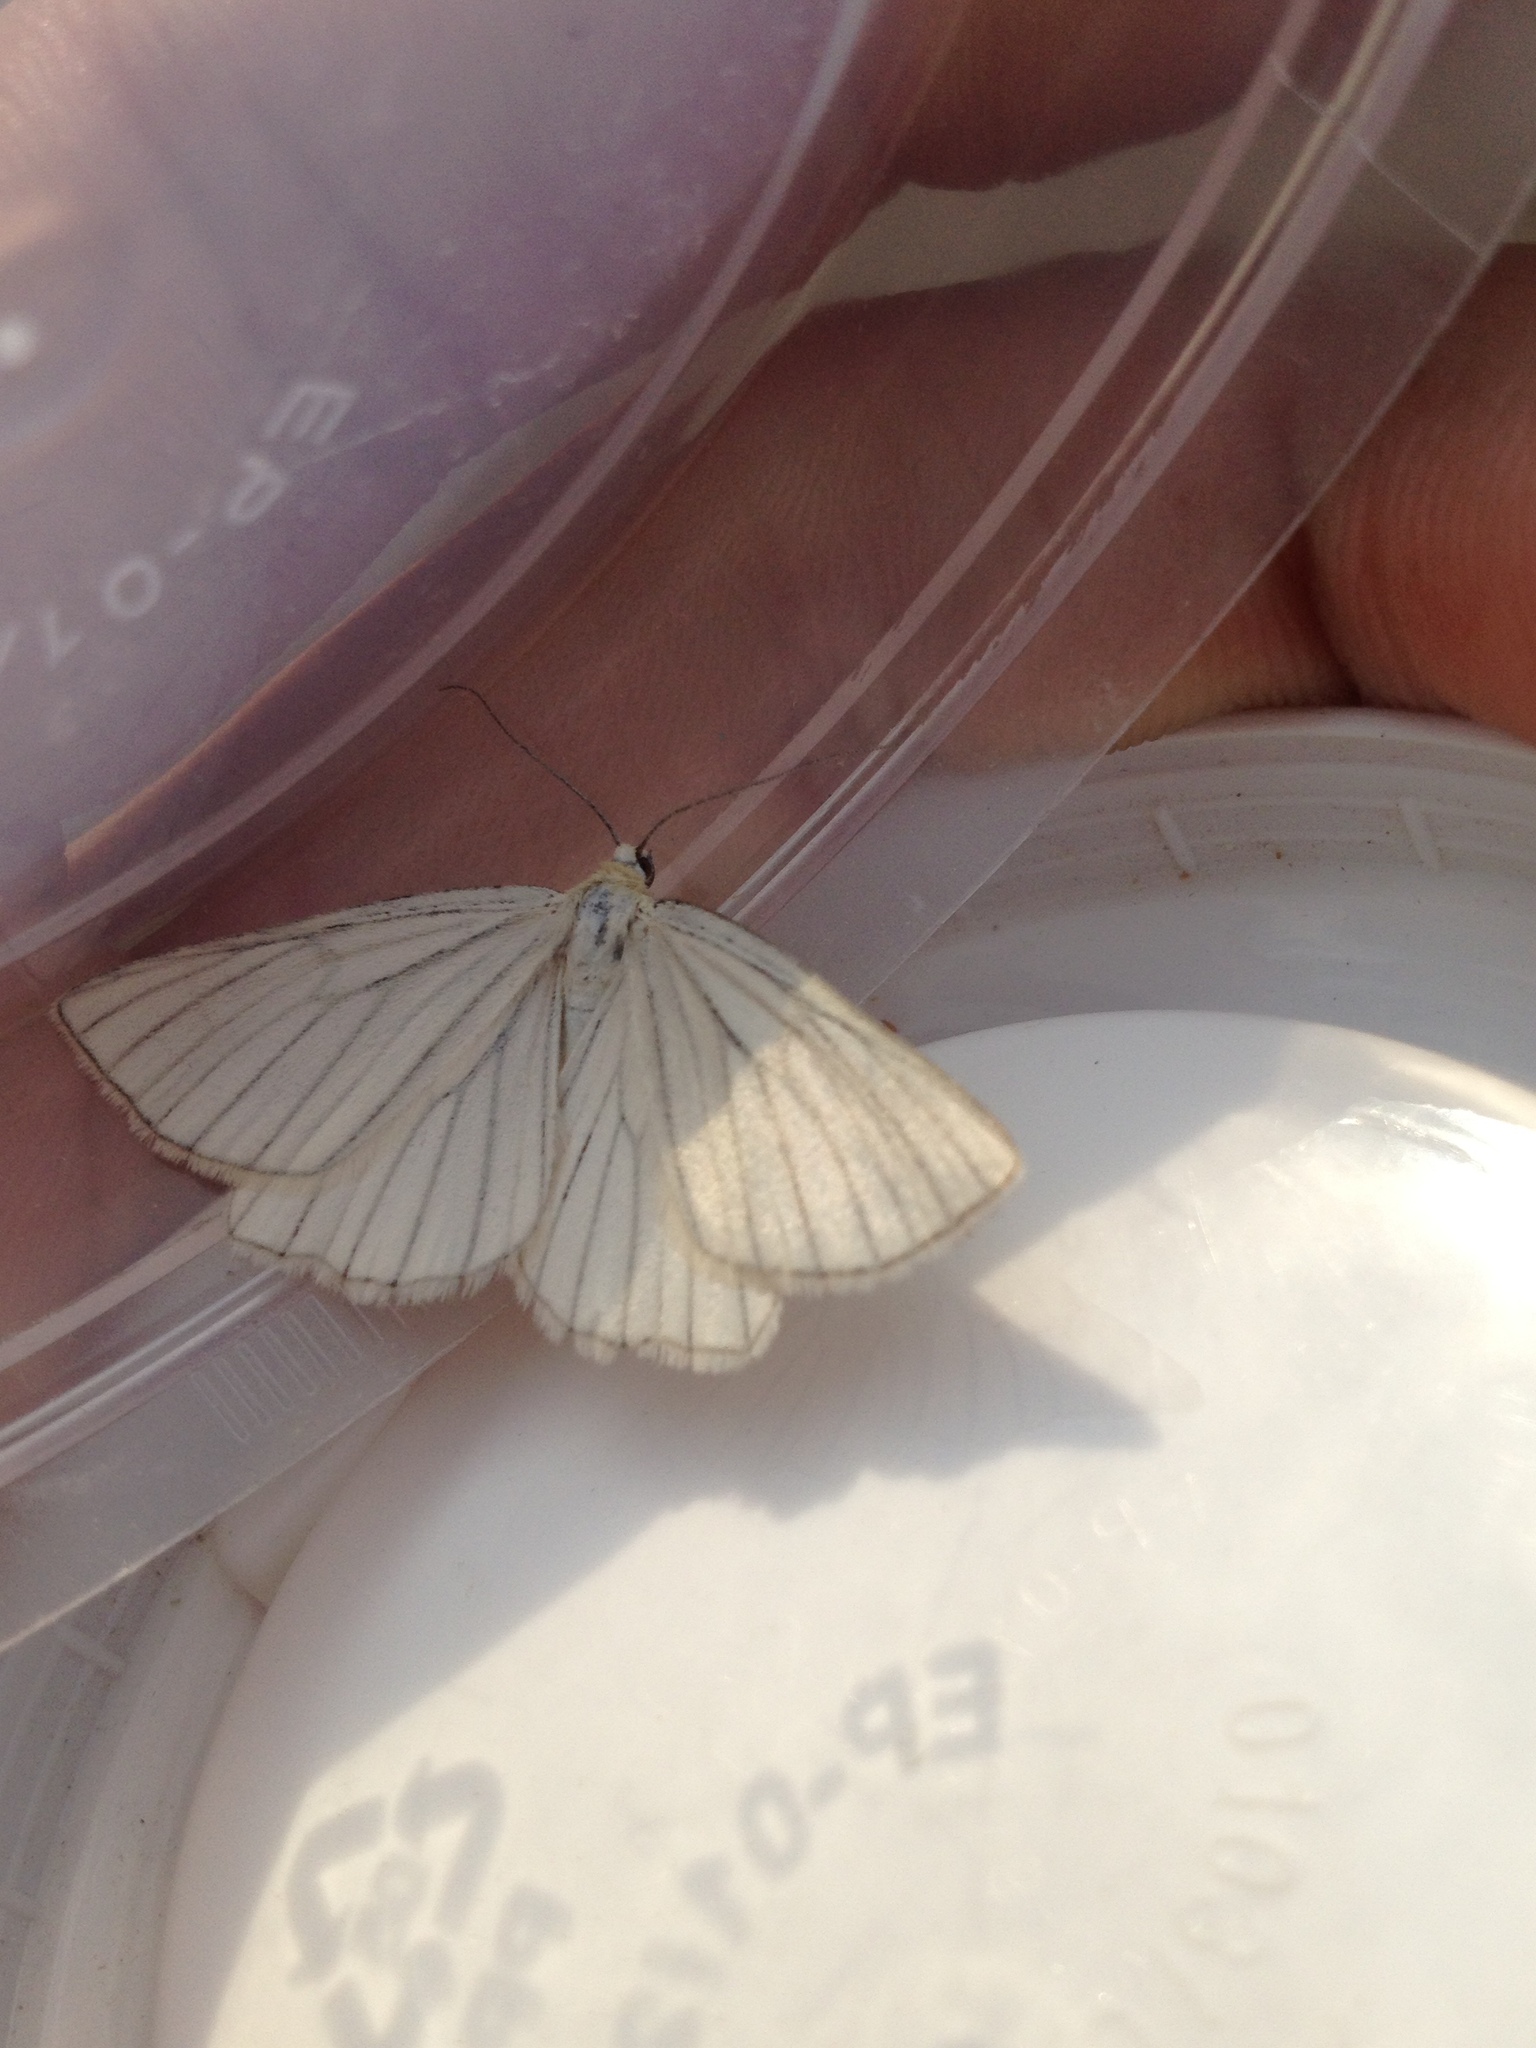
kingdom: Animalia
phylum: Arthropoda
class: Insecta
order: Lepidoptera
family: Geometridae
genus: Siona
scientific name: Siona lineata
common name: Black-veined moth
